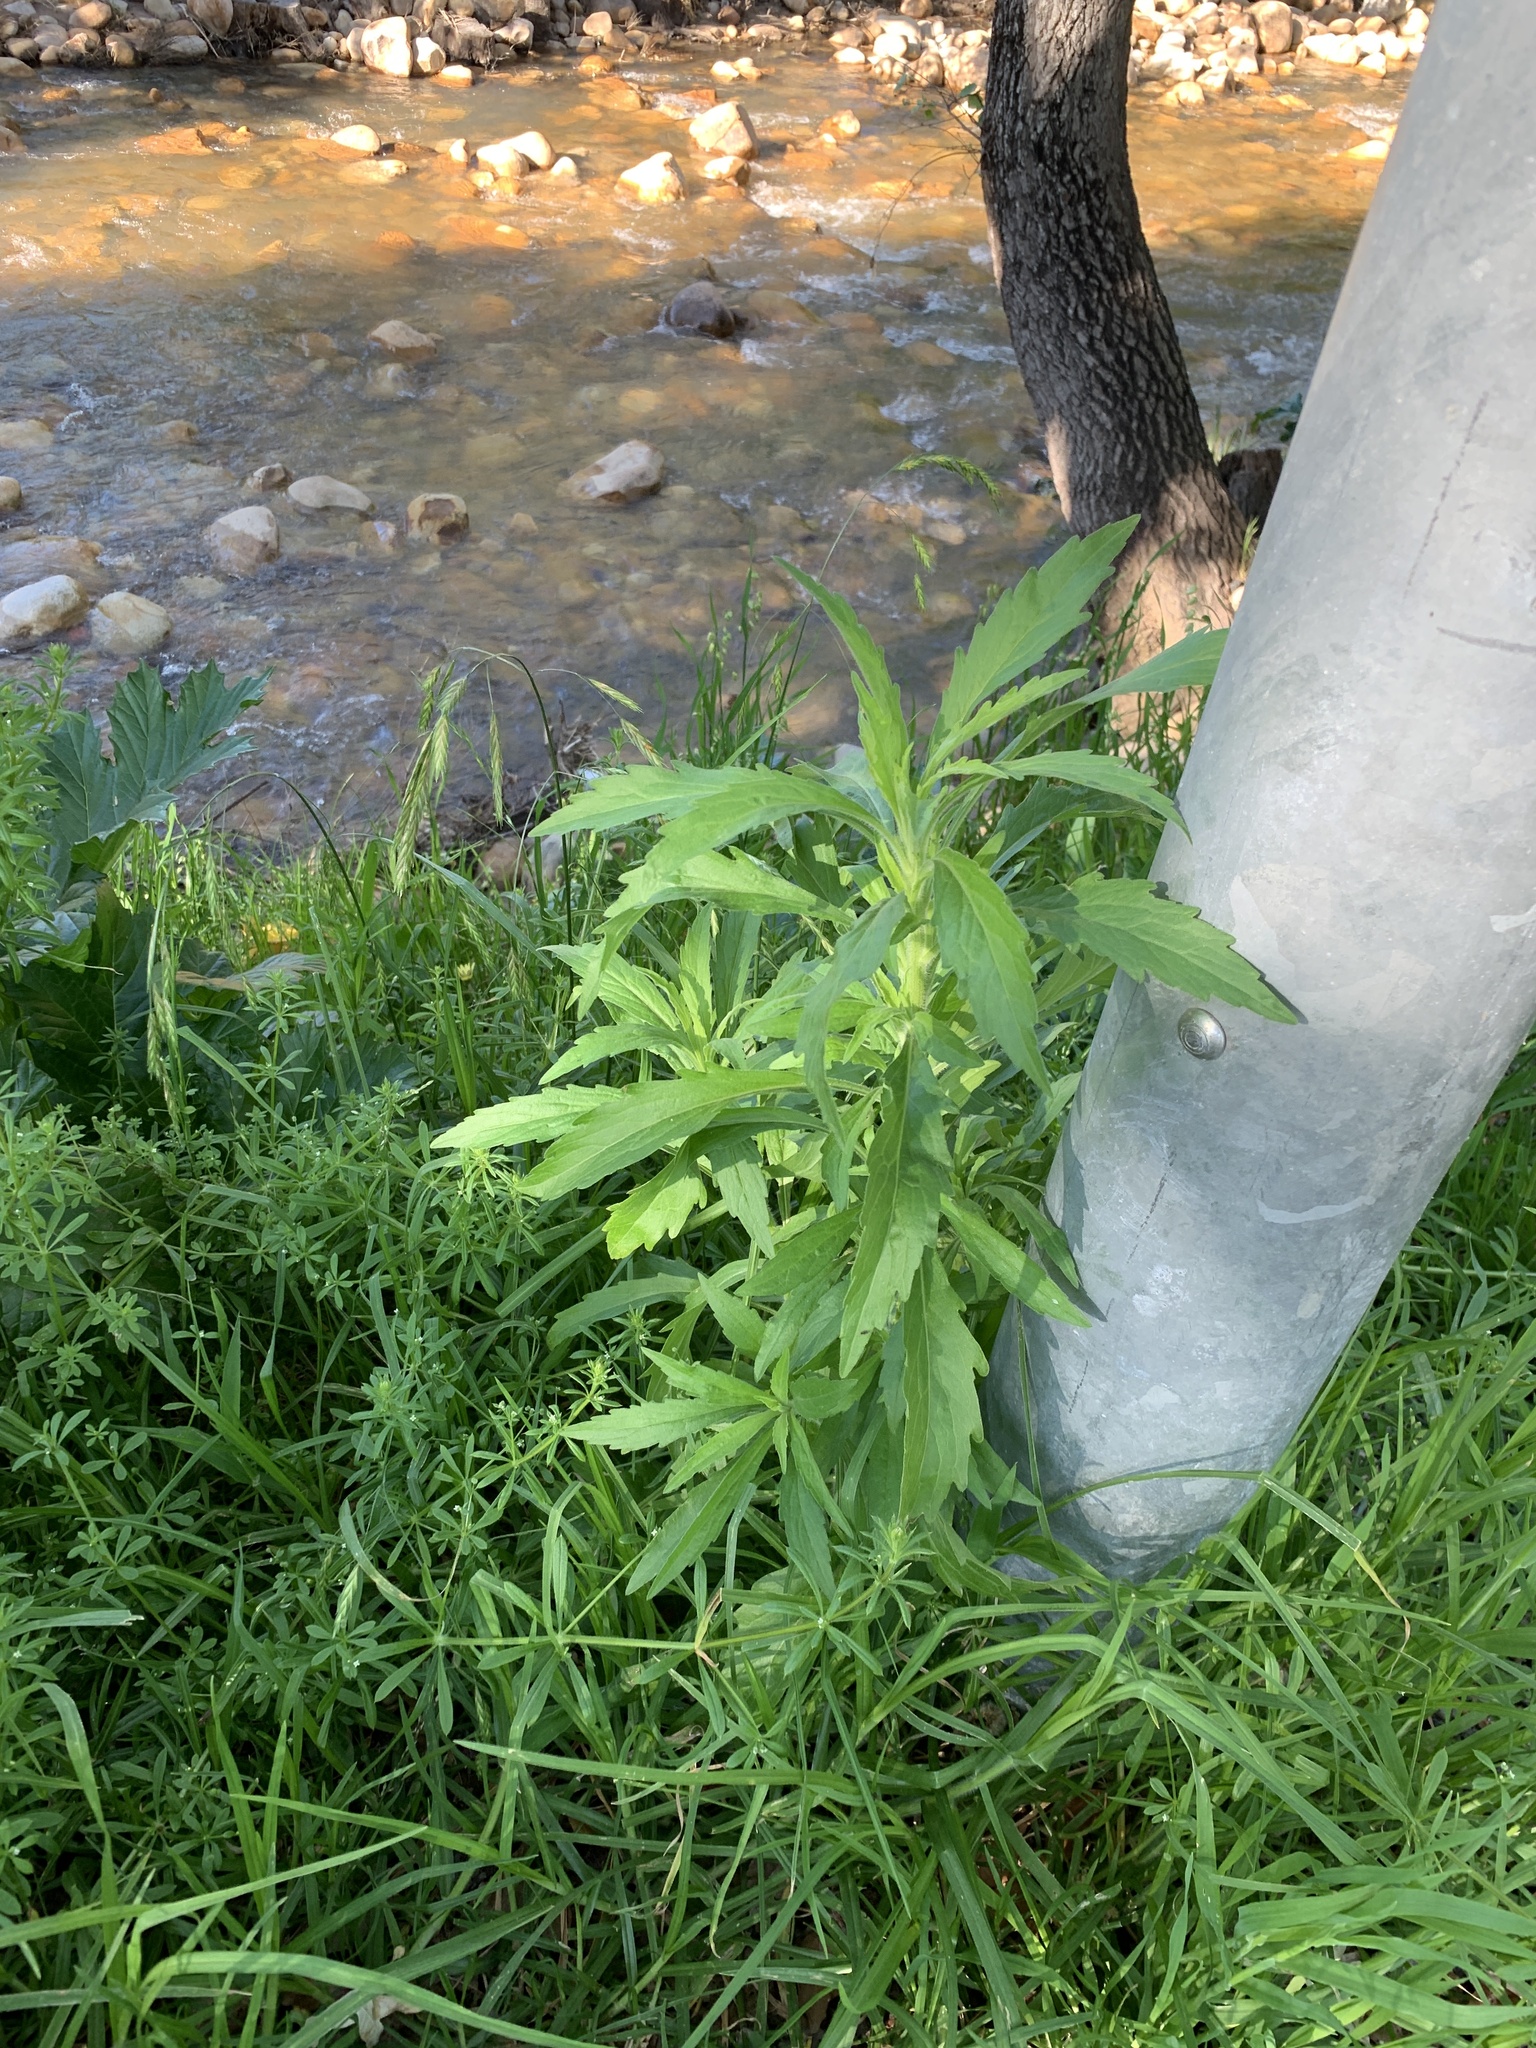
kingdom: Plantae
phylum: Tracheophyta
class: Magnoliopsida
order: Asterales
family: Asteraceae
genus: Senecio
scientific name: Senecio pterophorus
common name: Shoddy ragwort
